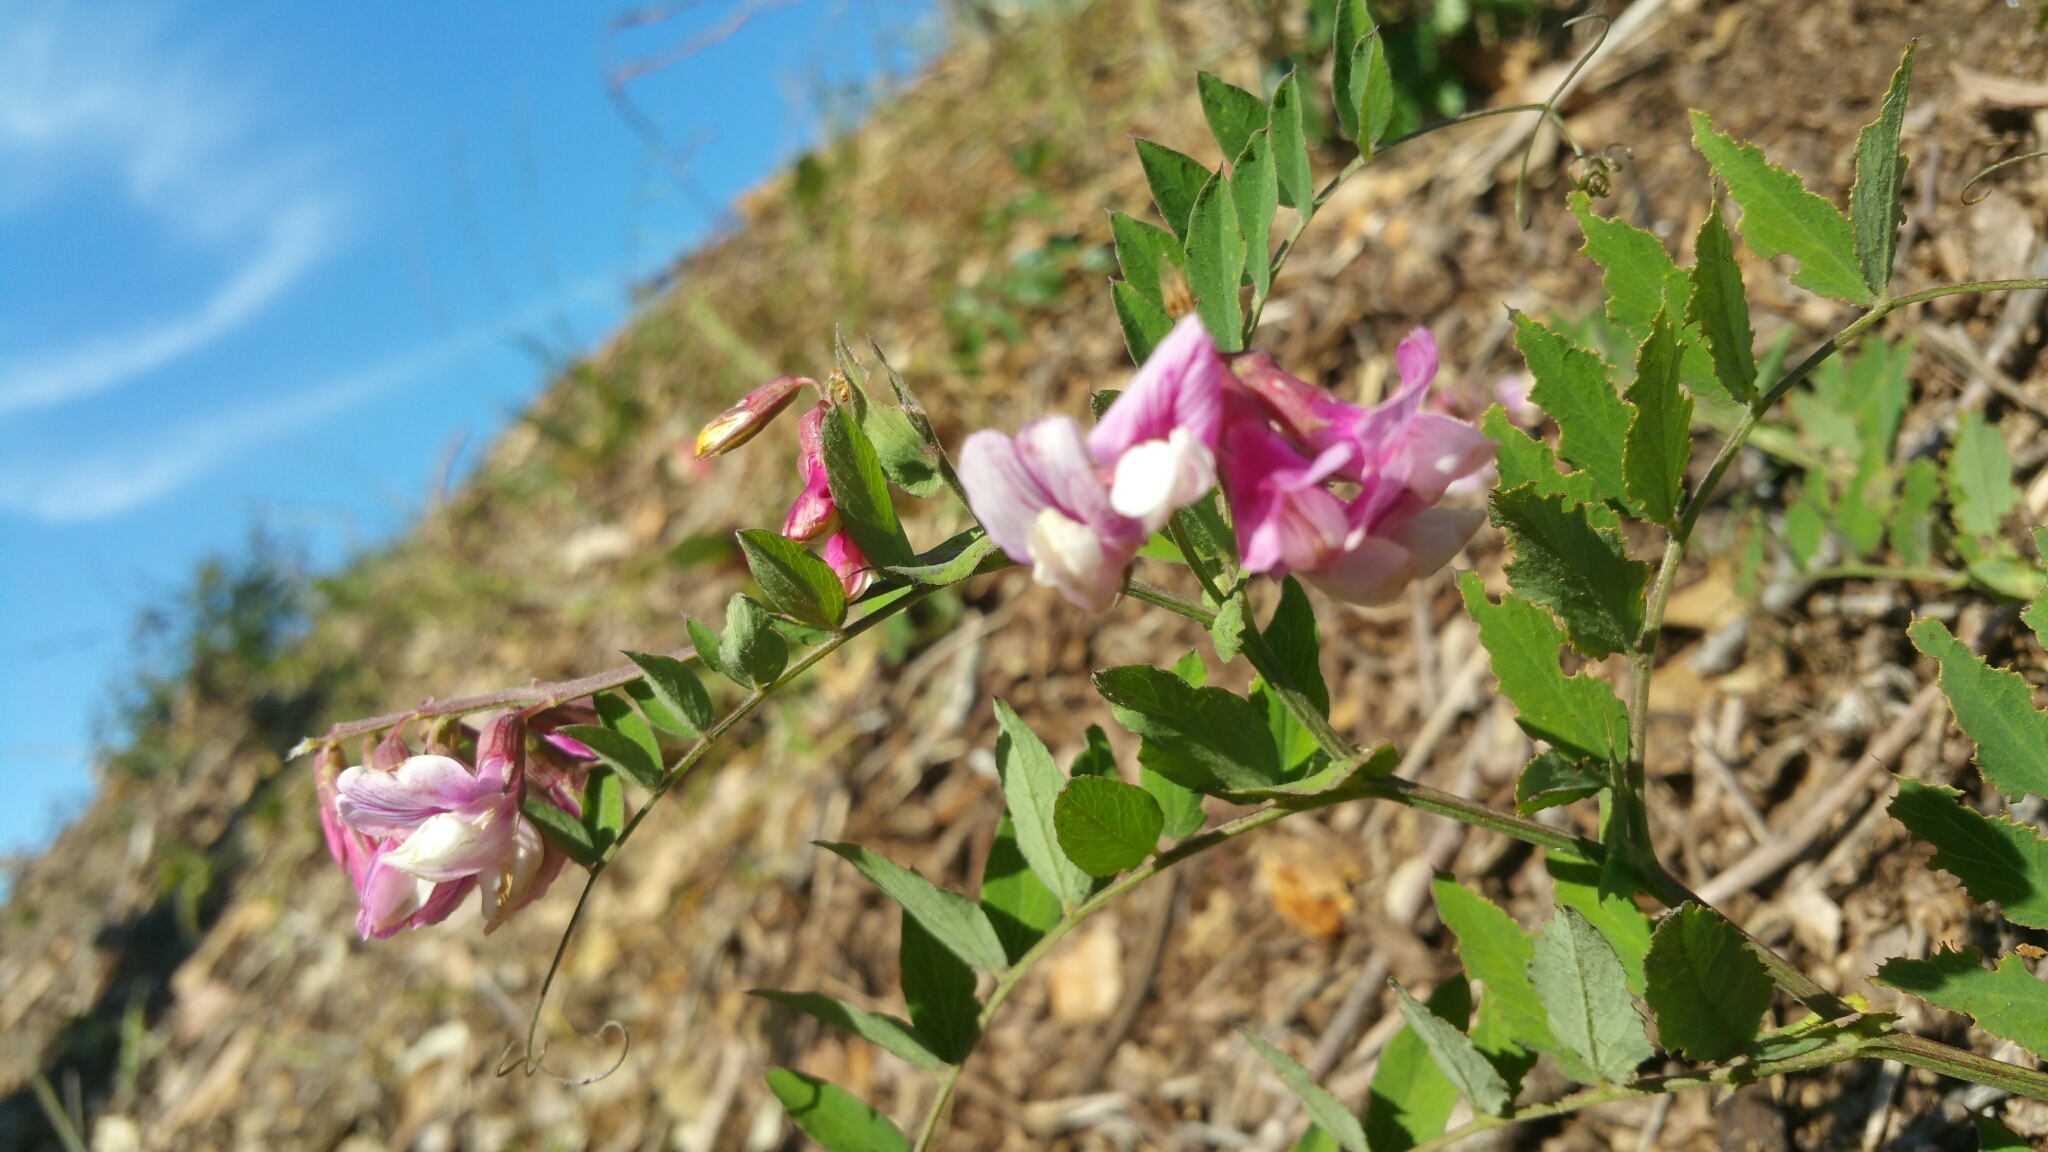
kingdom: Plantae
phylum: Tracheophyta
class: Magnoliopsida
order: Fabales
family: Fabaceae
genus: Lathyrus
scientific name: Lathyrus vestitus
